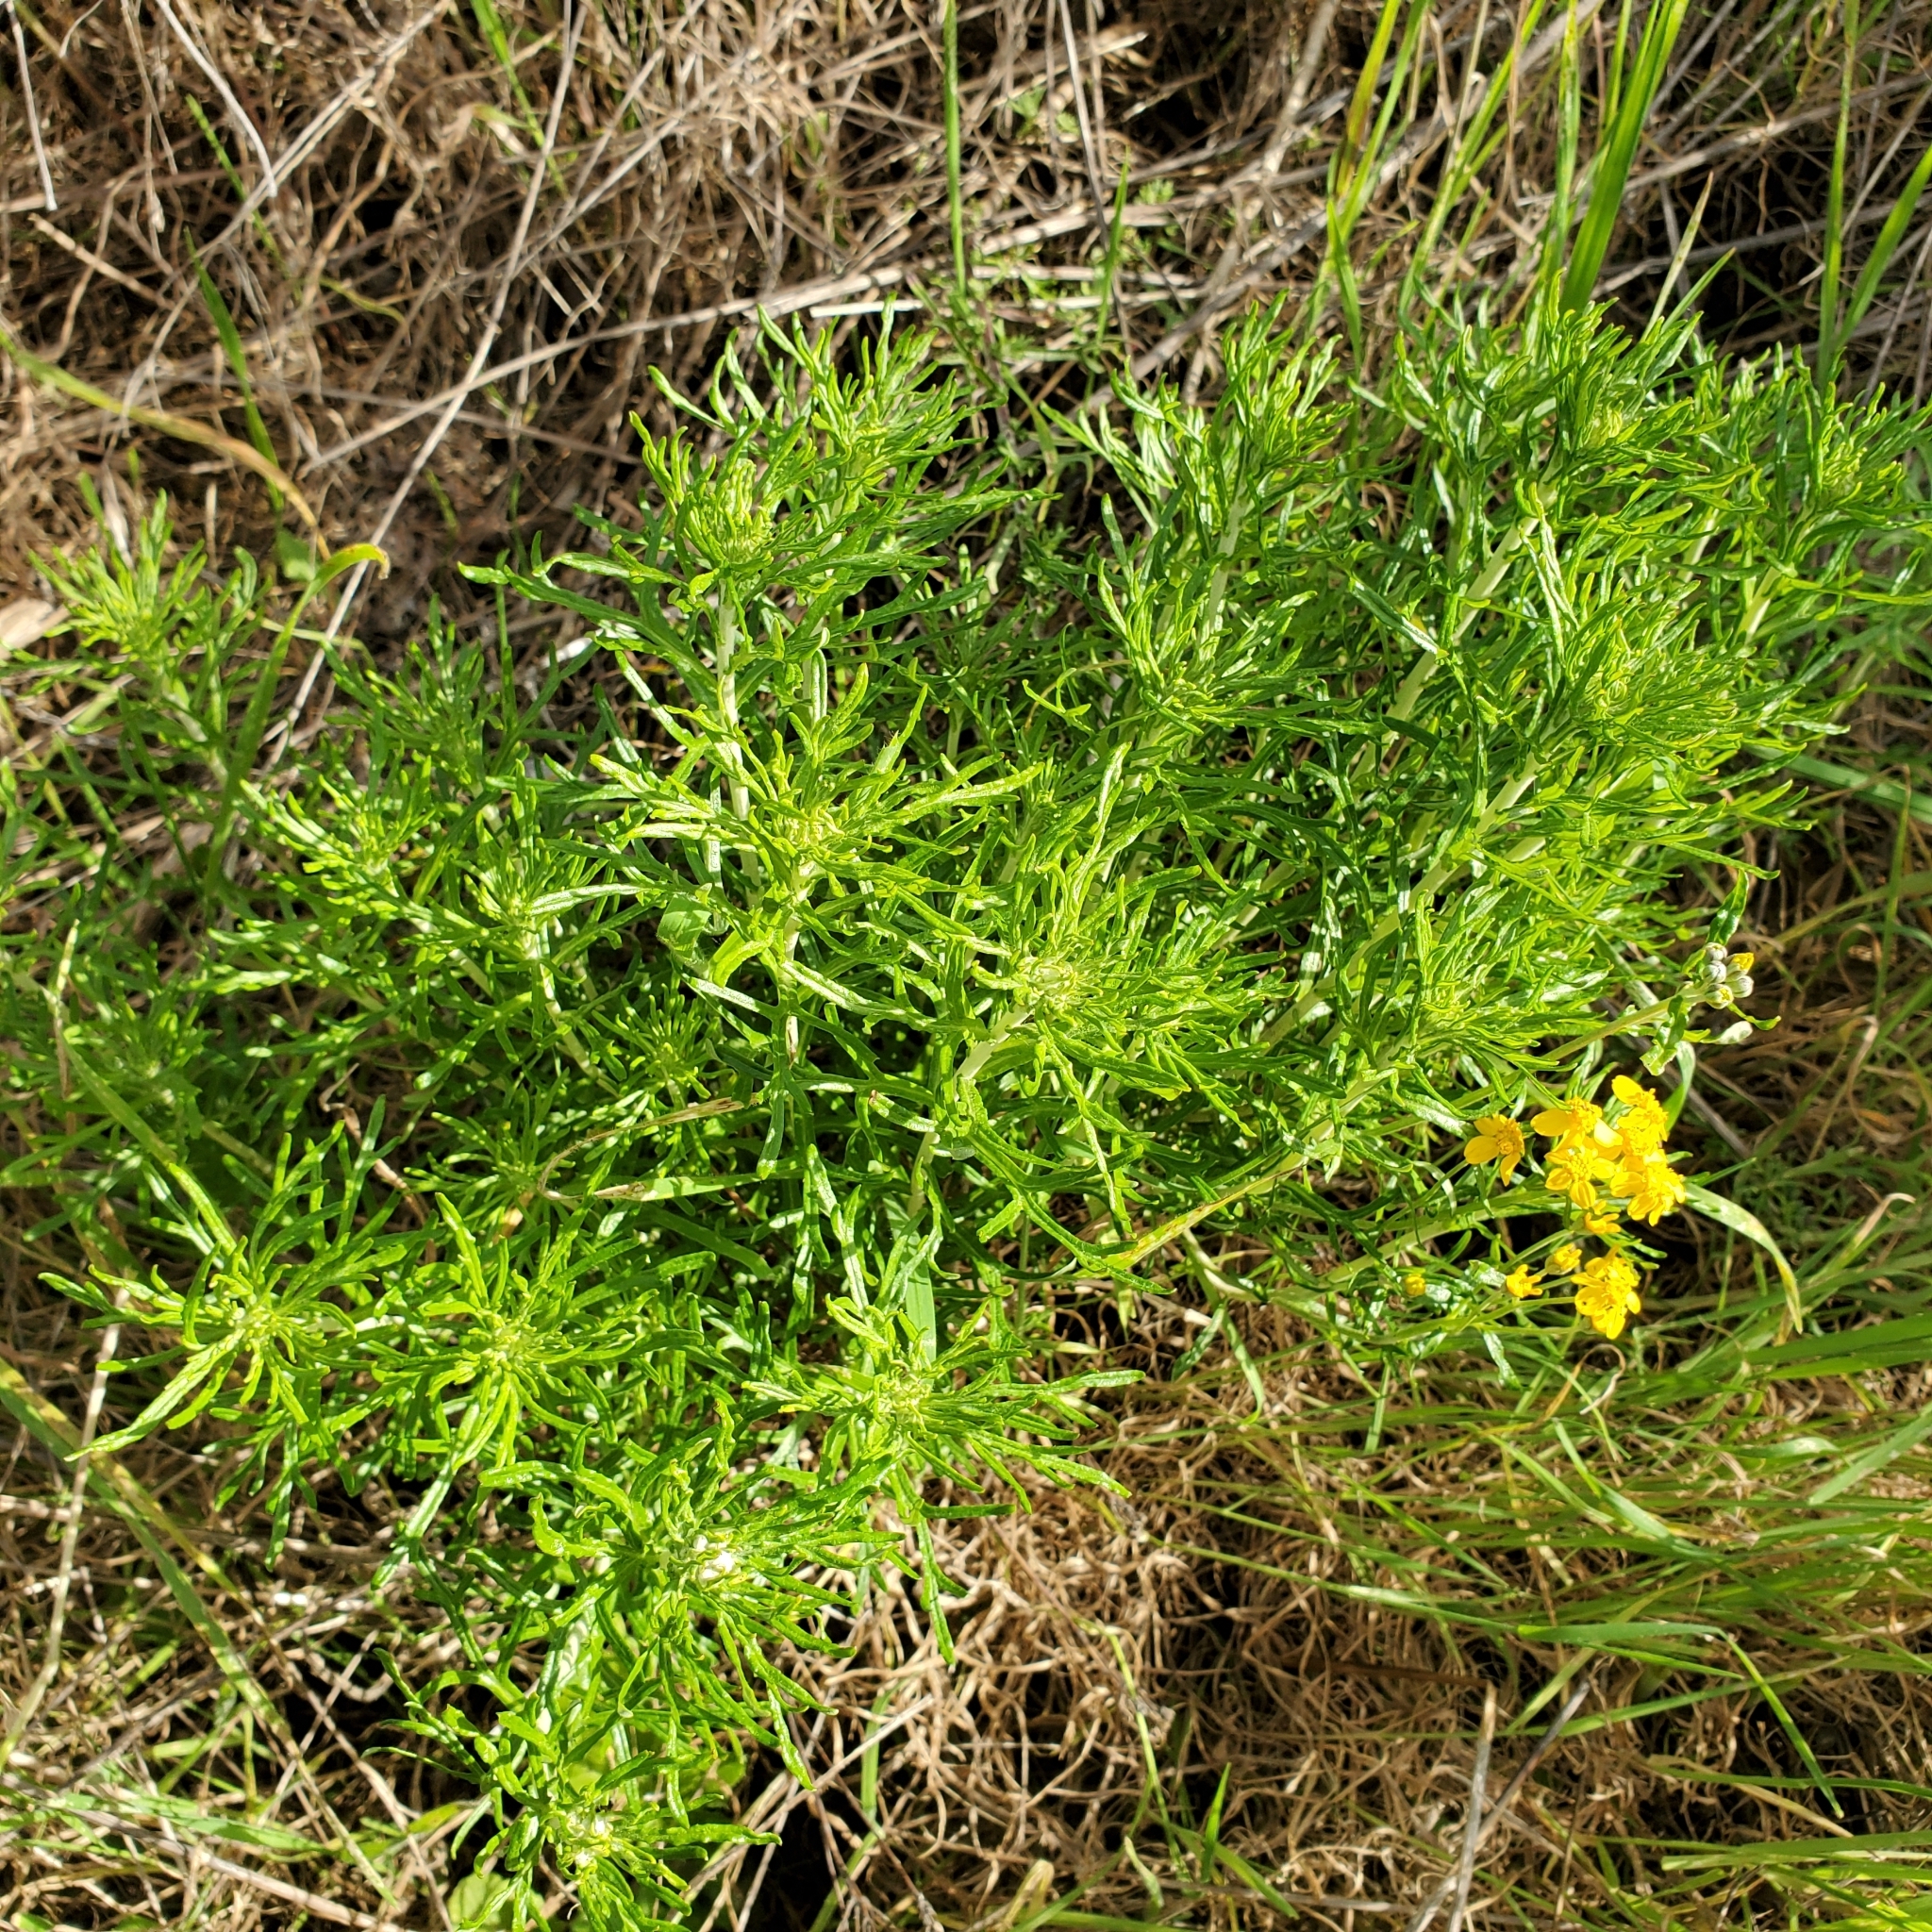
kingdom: Plantae
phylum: Tracheophyta
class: Magnoliopsida
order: Asterales
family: Asteraceae
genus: Eriophyllum
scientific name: Eriophyllum confertiflorum
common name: Golden-yarrow
